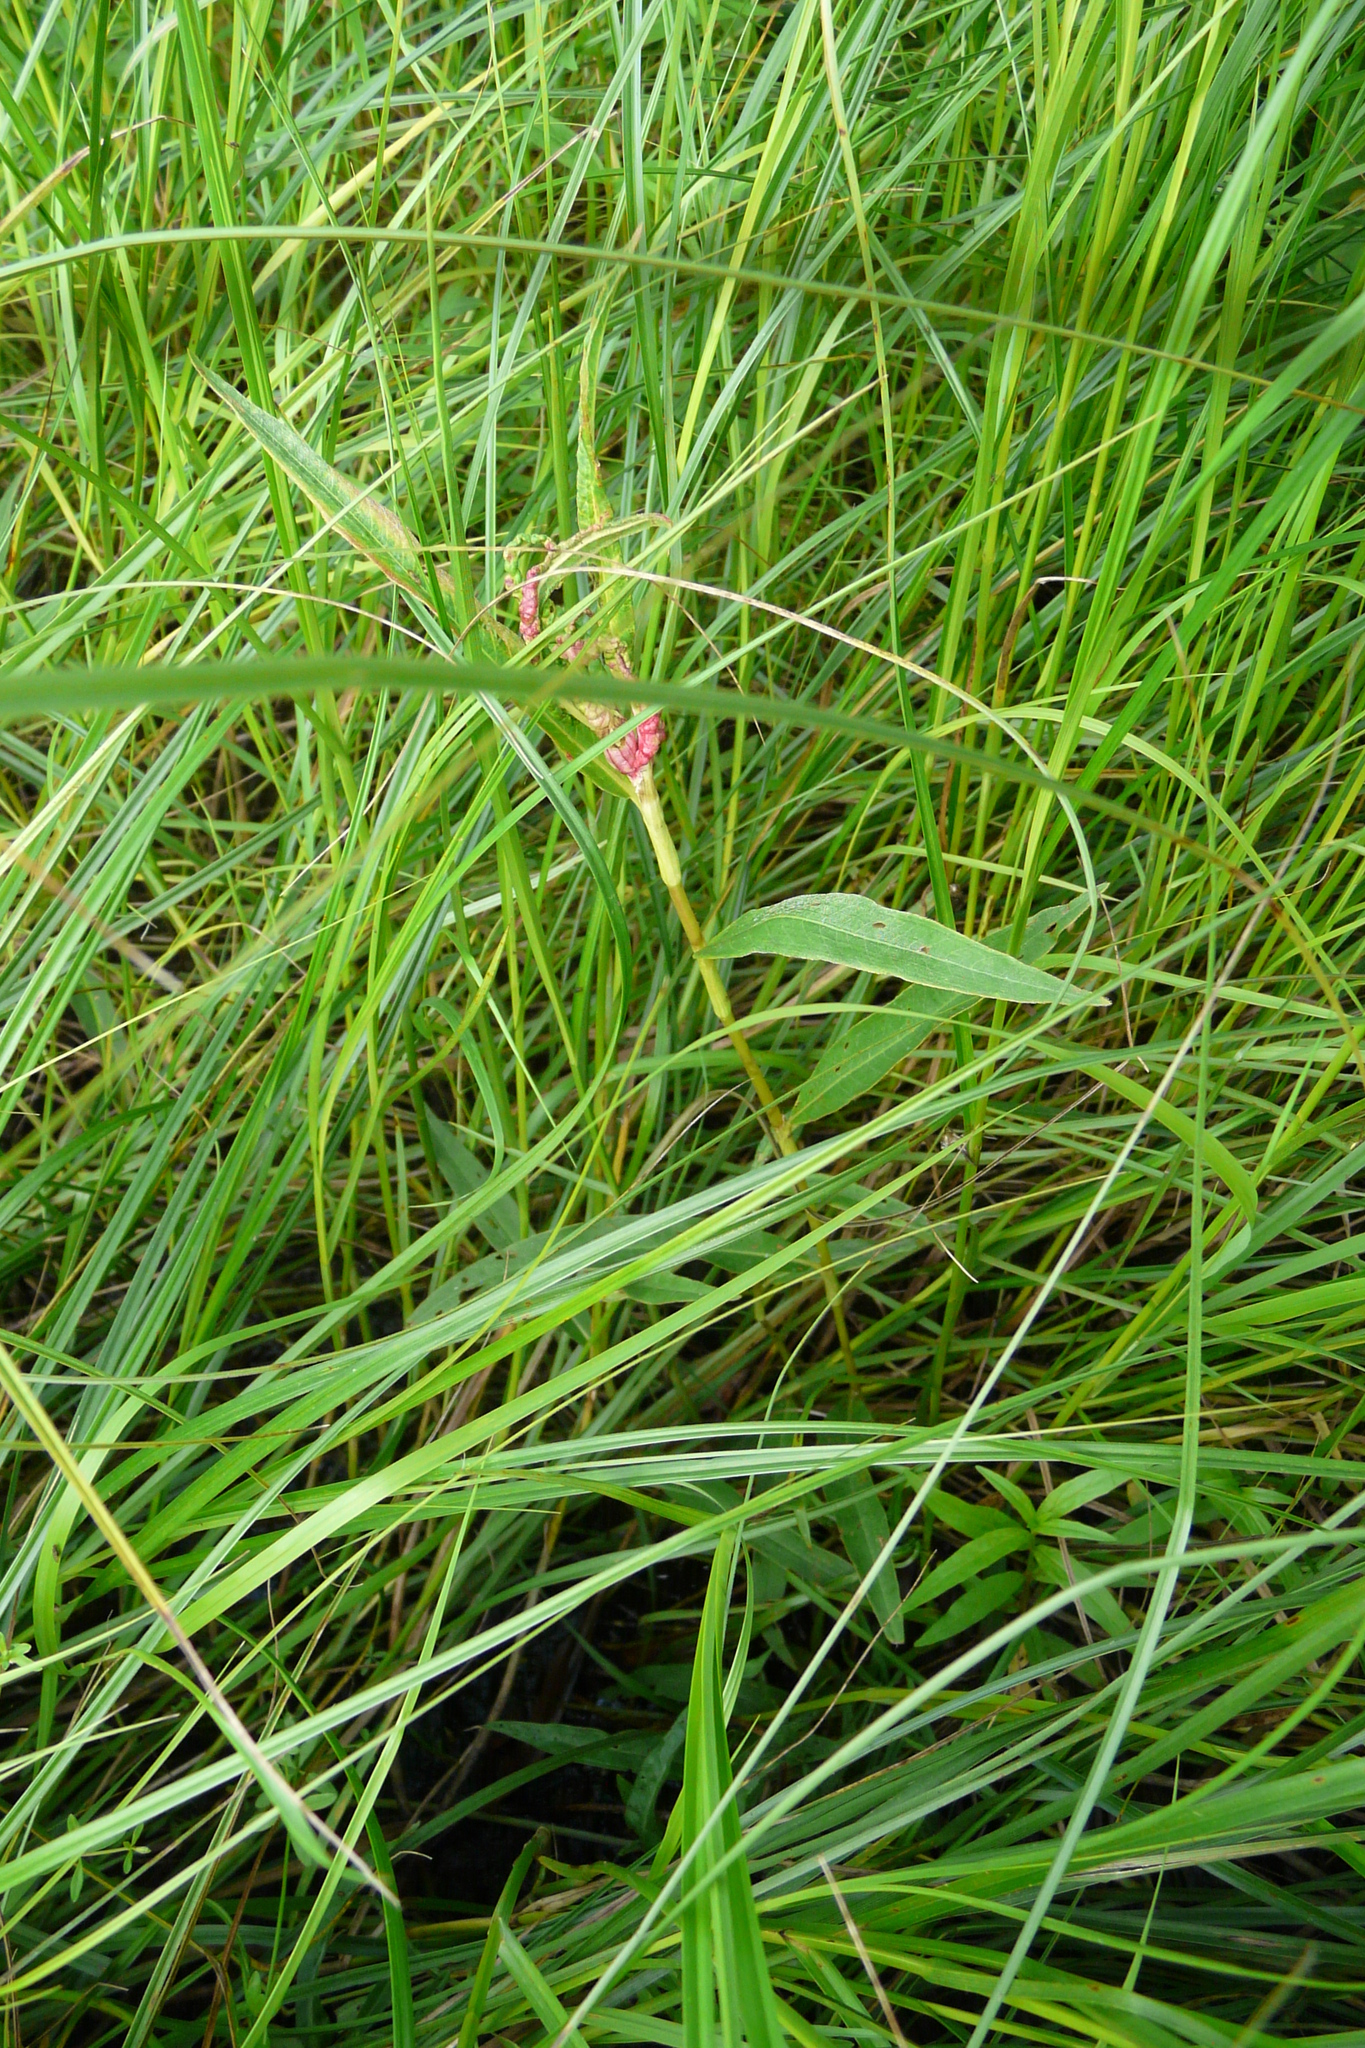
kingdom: Plantae
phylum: Tracheophyta
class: Magnoliopsida
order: Caryophyllales
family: Polygonaceae
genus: Persicaria
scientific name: Persicaria amphibia
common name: Amphibious bistort
